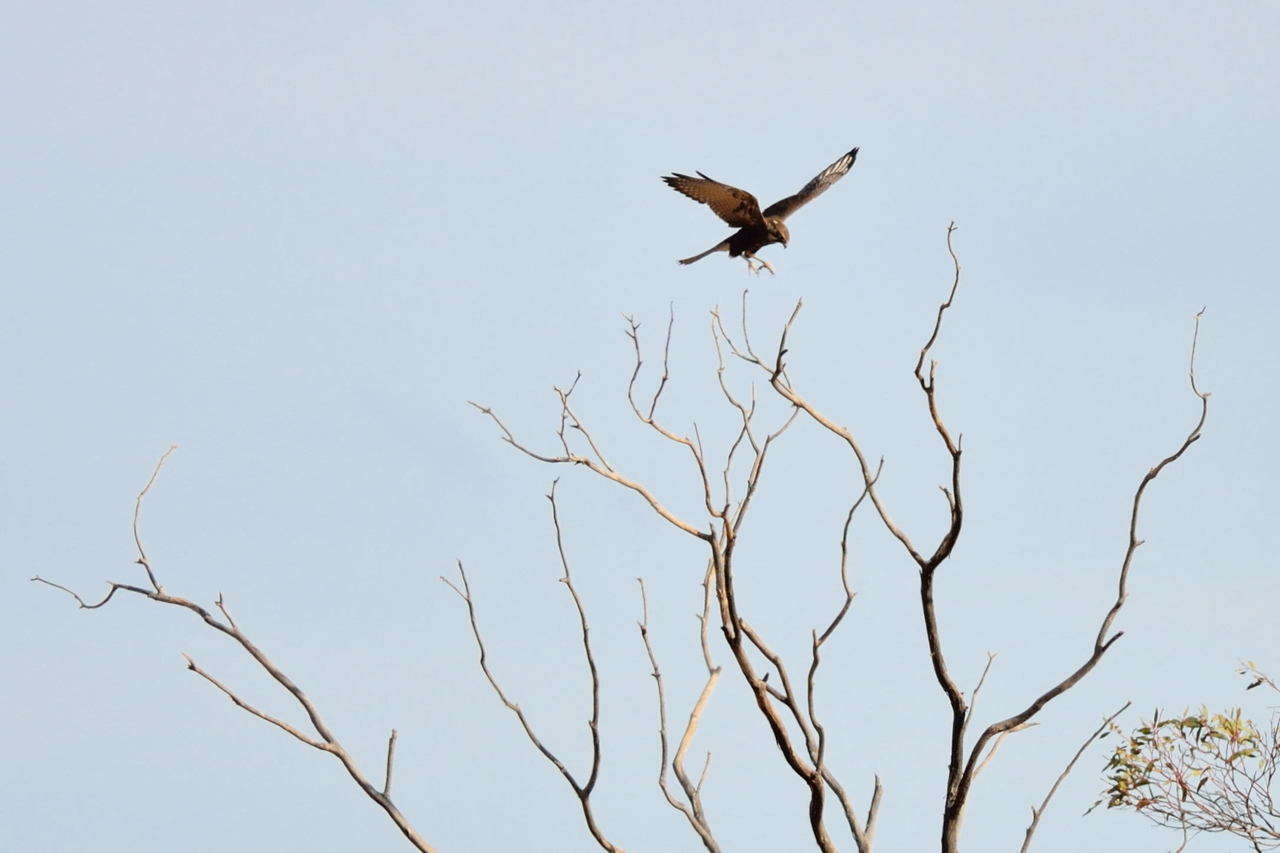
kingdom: Animalia
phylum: Chordata
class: Aves
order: Falconiformes
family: Falconidae
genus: Falco
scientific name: Falco berigora
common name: Brown falcon
